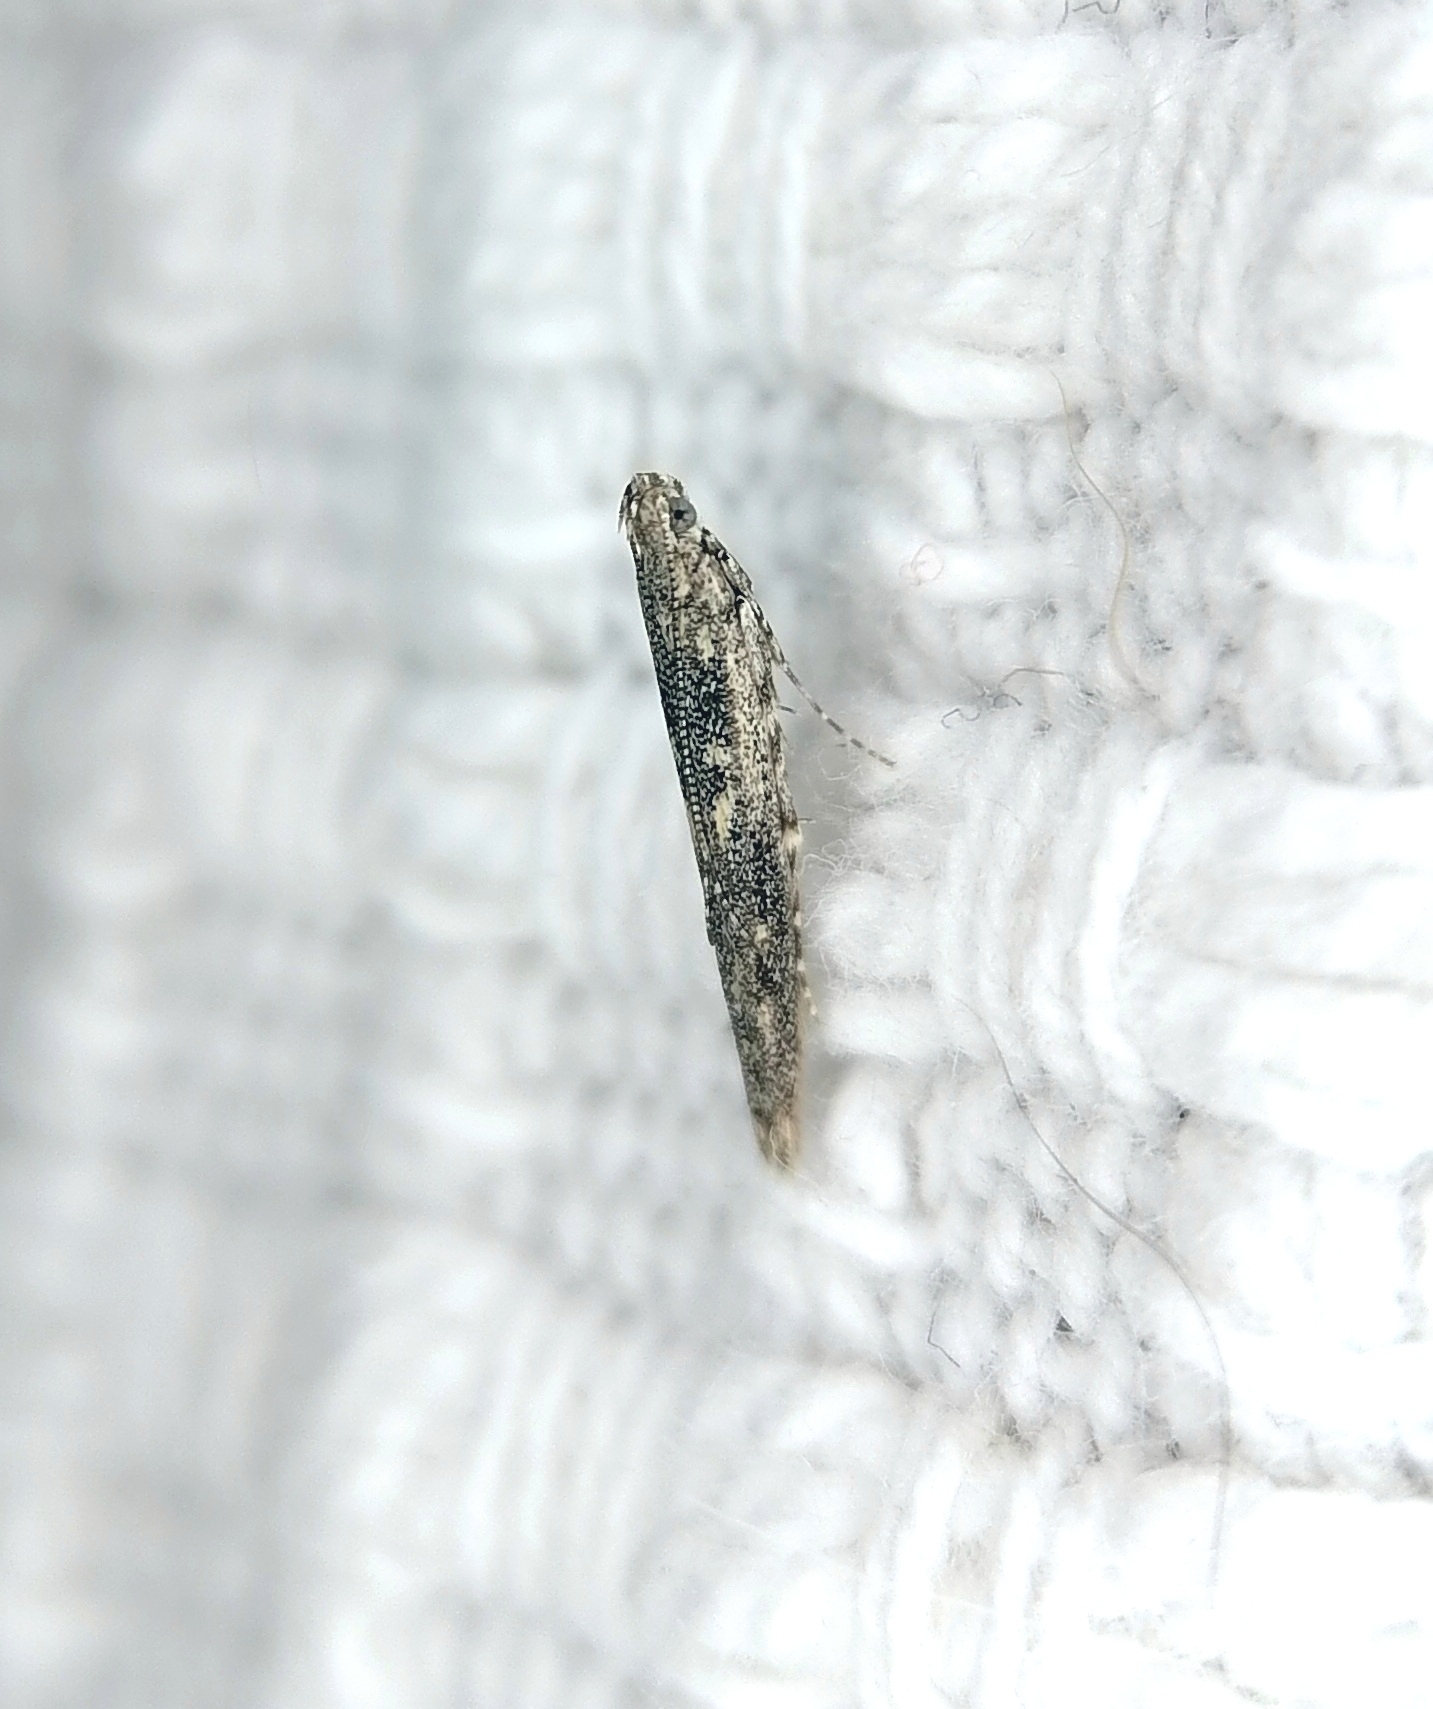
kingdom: Animalia
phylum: Arthropoda
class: Insecta
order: Lepidoptera
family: Batrachedridae
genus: Batrachedra
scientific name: Batrachedra praeangusta
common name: Poplar cosmet
